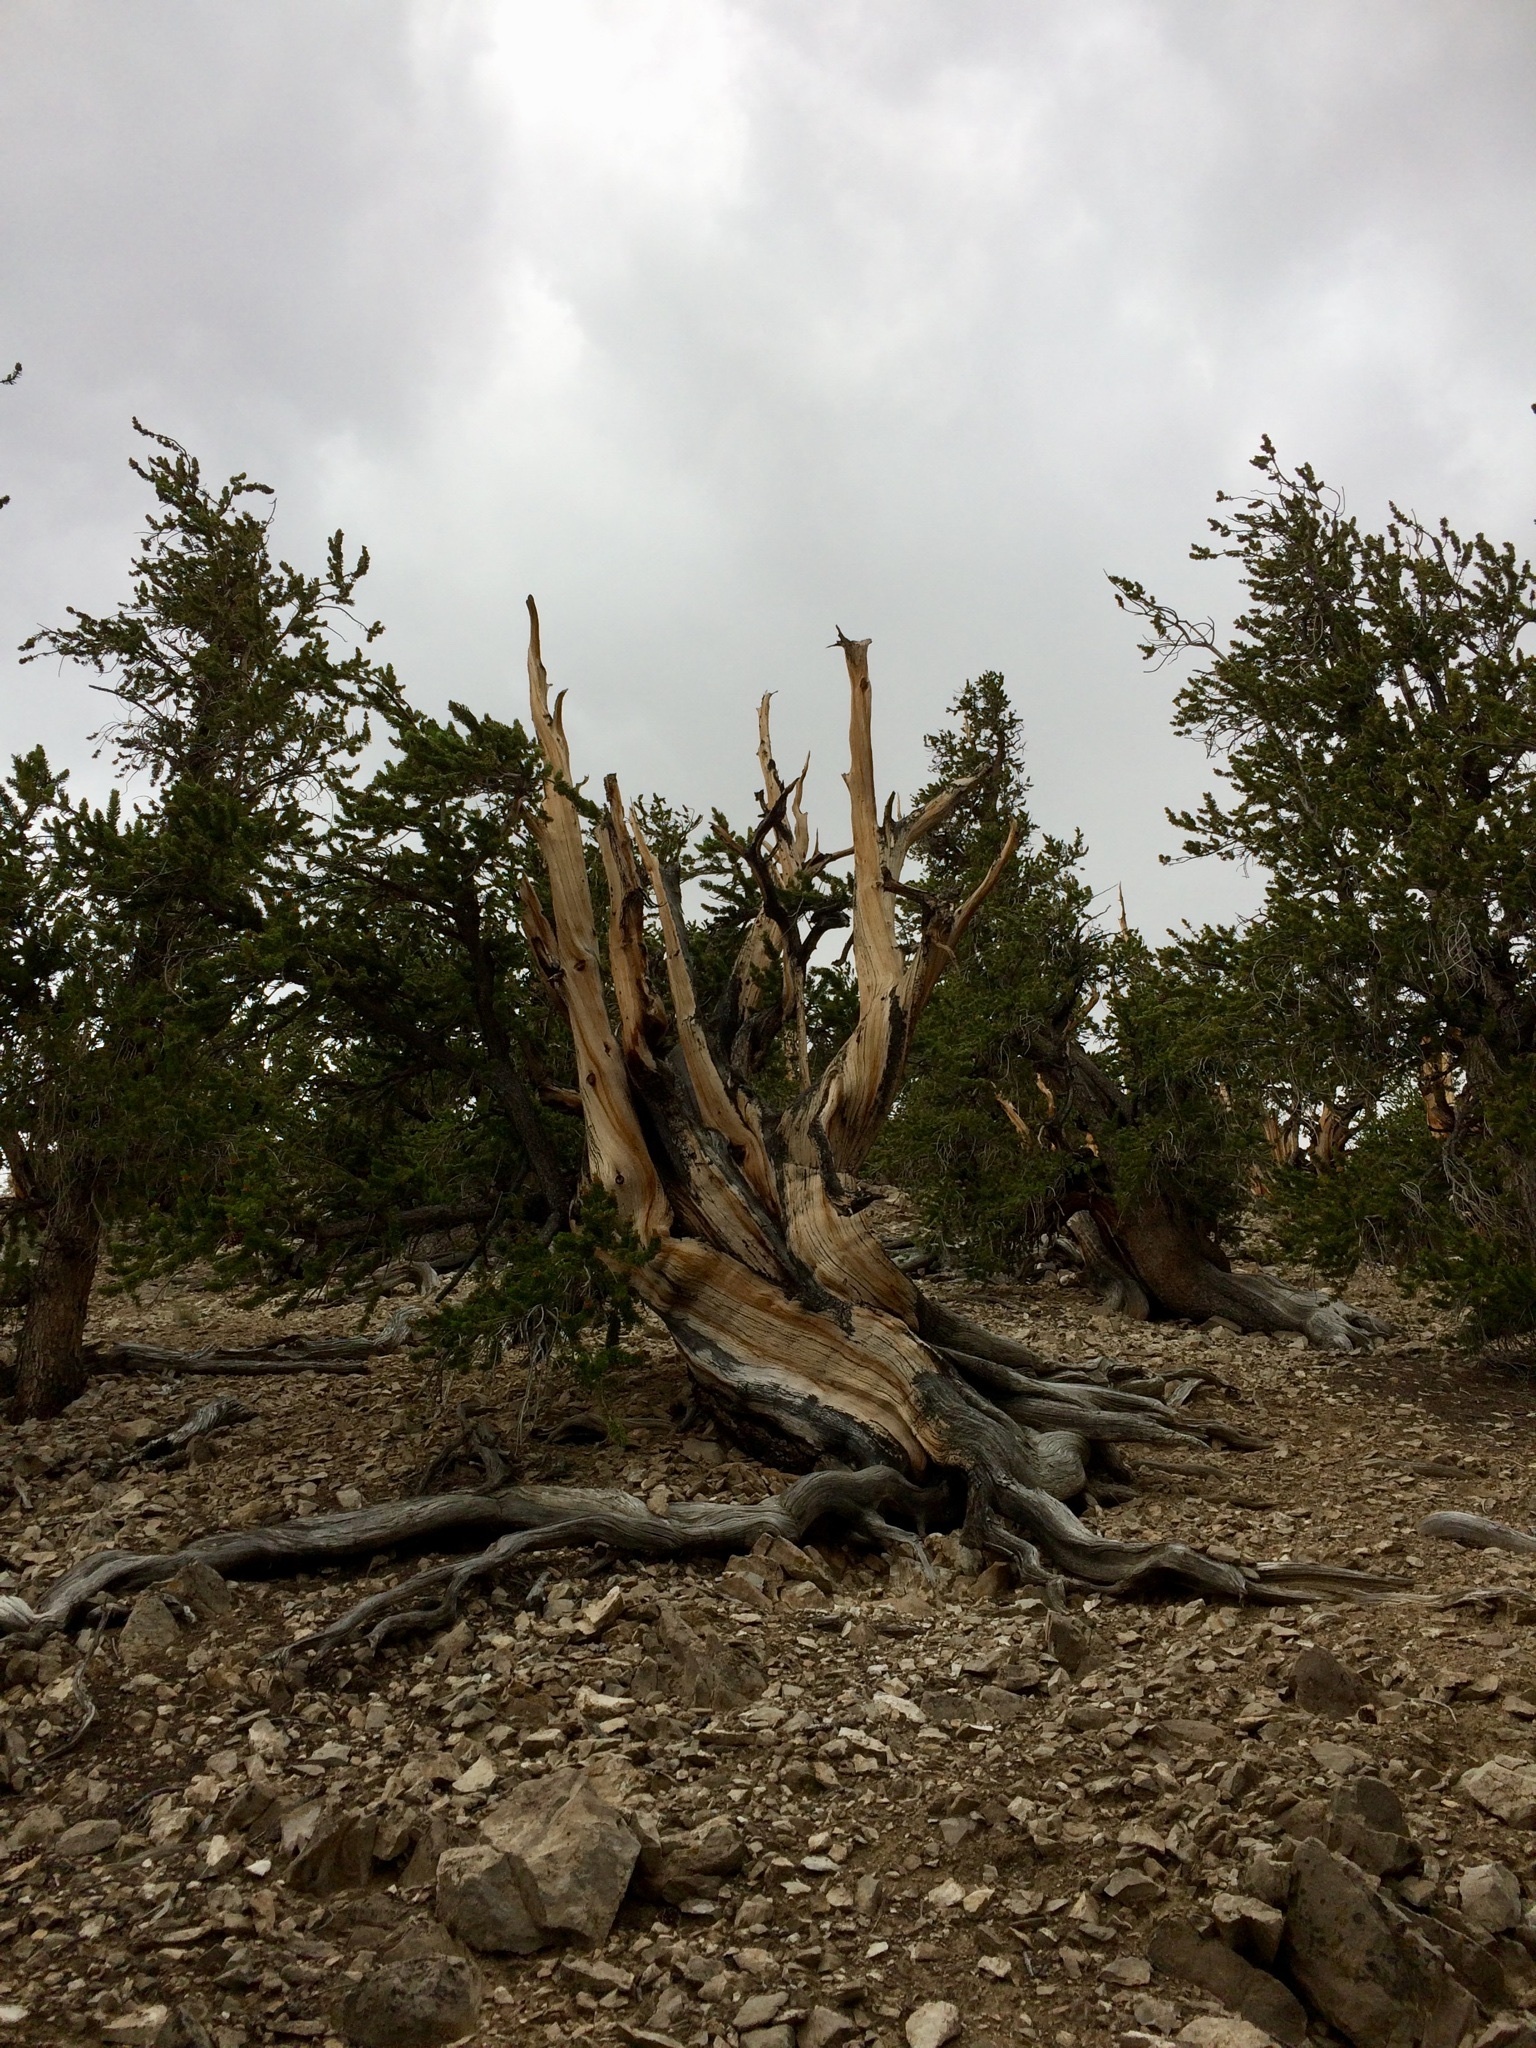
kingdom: Plantae
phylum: Tracheophyta
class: Pinopsida
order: Pinales
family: Pinaceae
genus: Pinus
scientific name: Pinus longaeva
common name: Intermountain bristlecone pine
